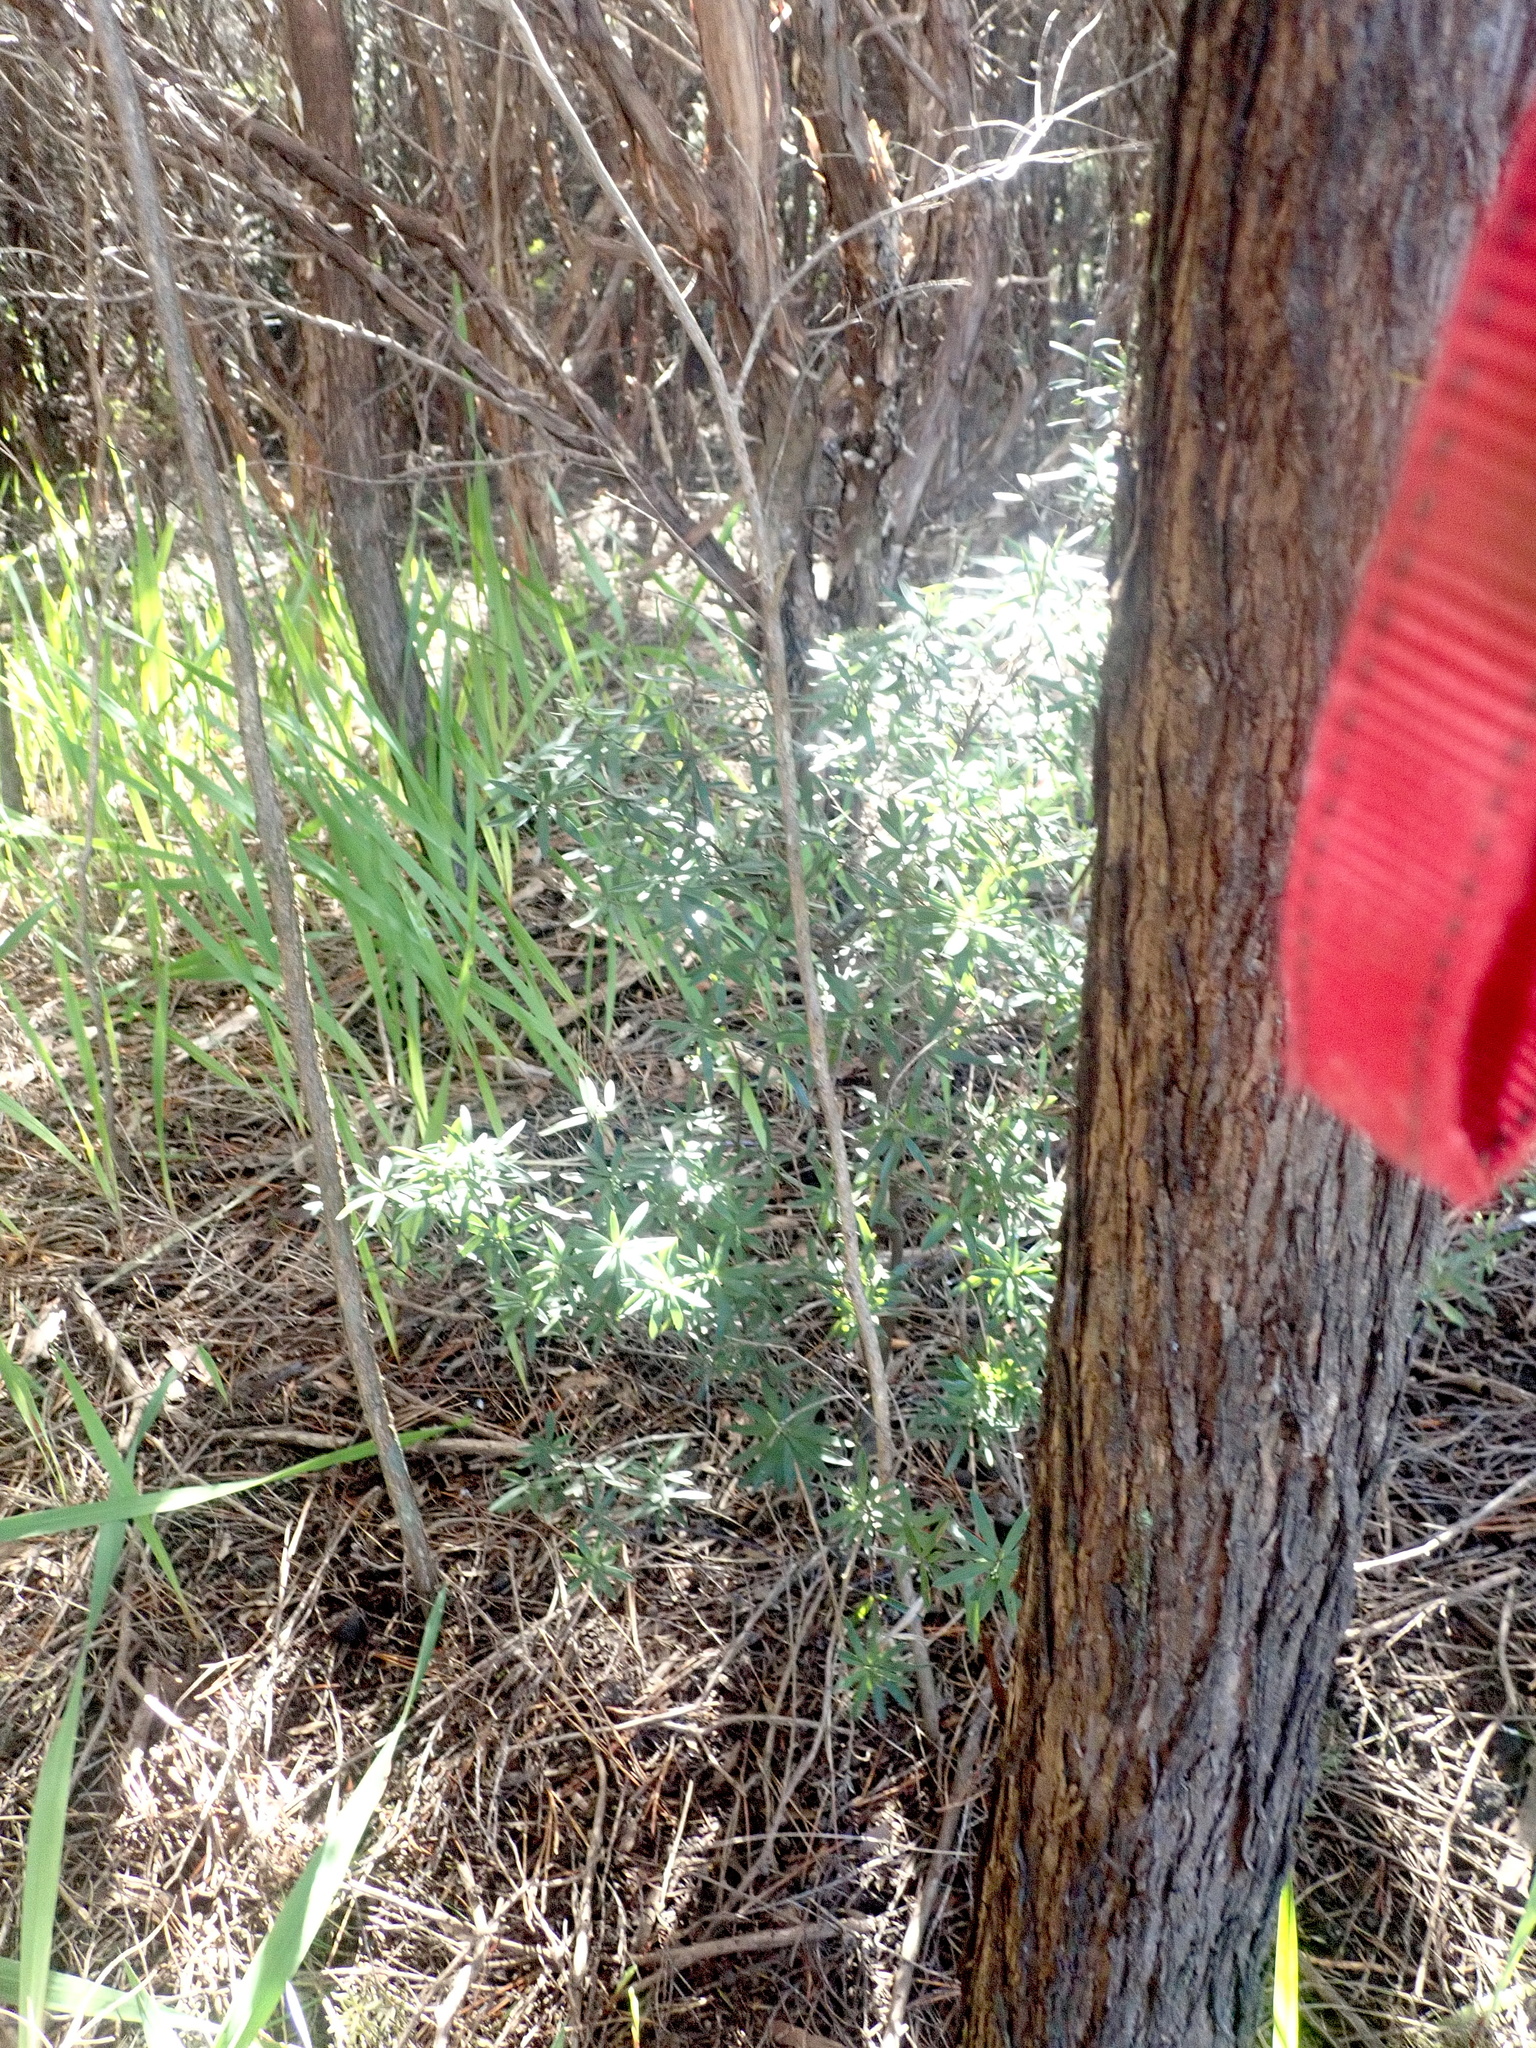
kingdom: Plantae
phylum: Tracheophyta
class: Magnoliopsida
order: Ericales
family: Ericaceae
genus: Leucopogon
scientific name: Leucopogon fasciculatus
